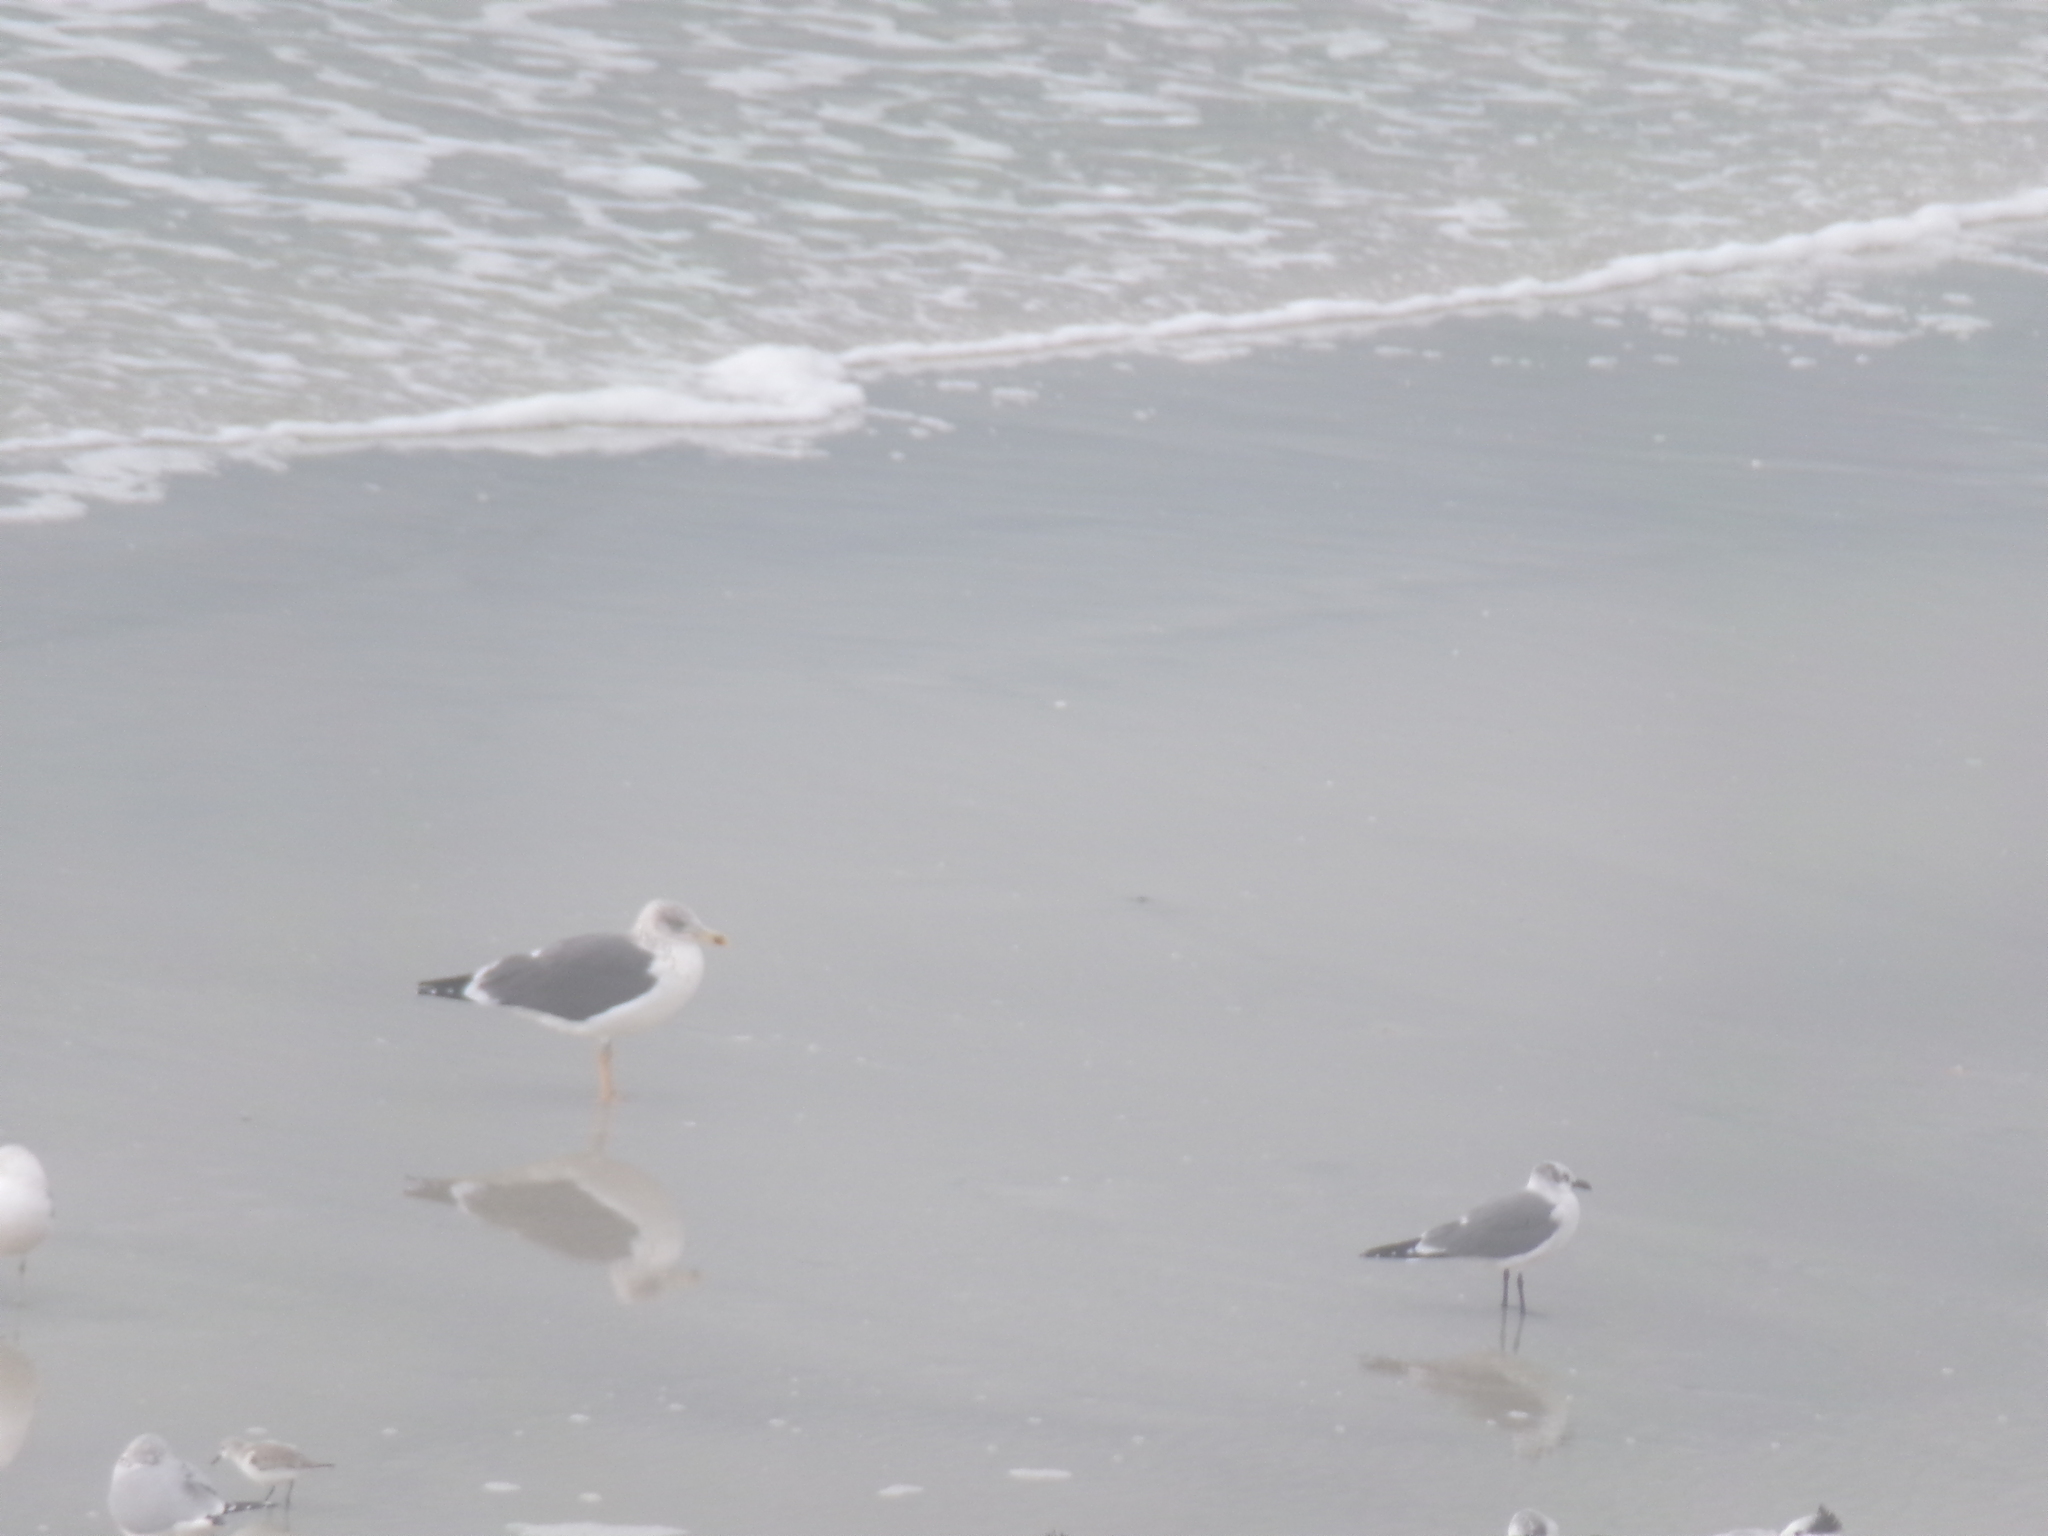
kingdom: Animalia
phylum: Chordata
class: Aves
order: Charadriiformes
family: Laridae
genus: Larus
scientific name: Larus fuscus
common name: Lesser black-backed gull
